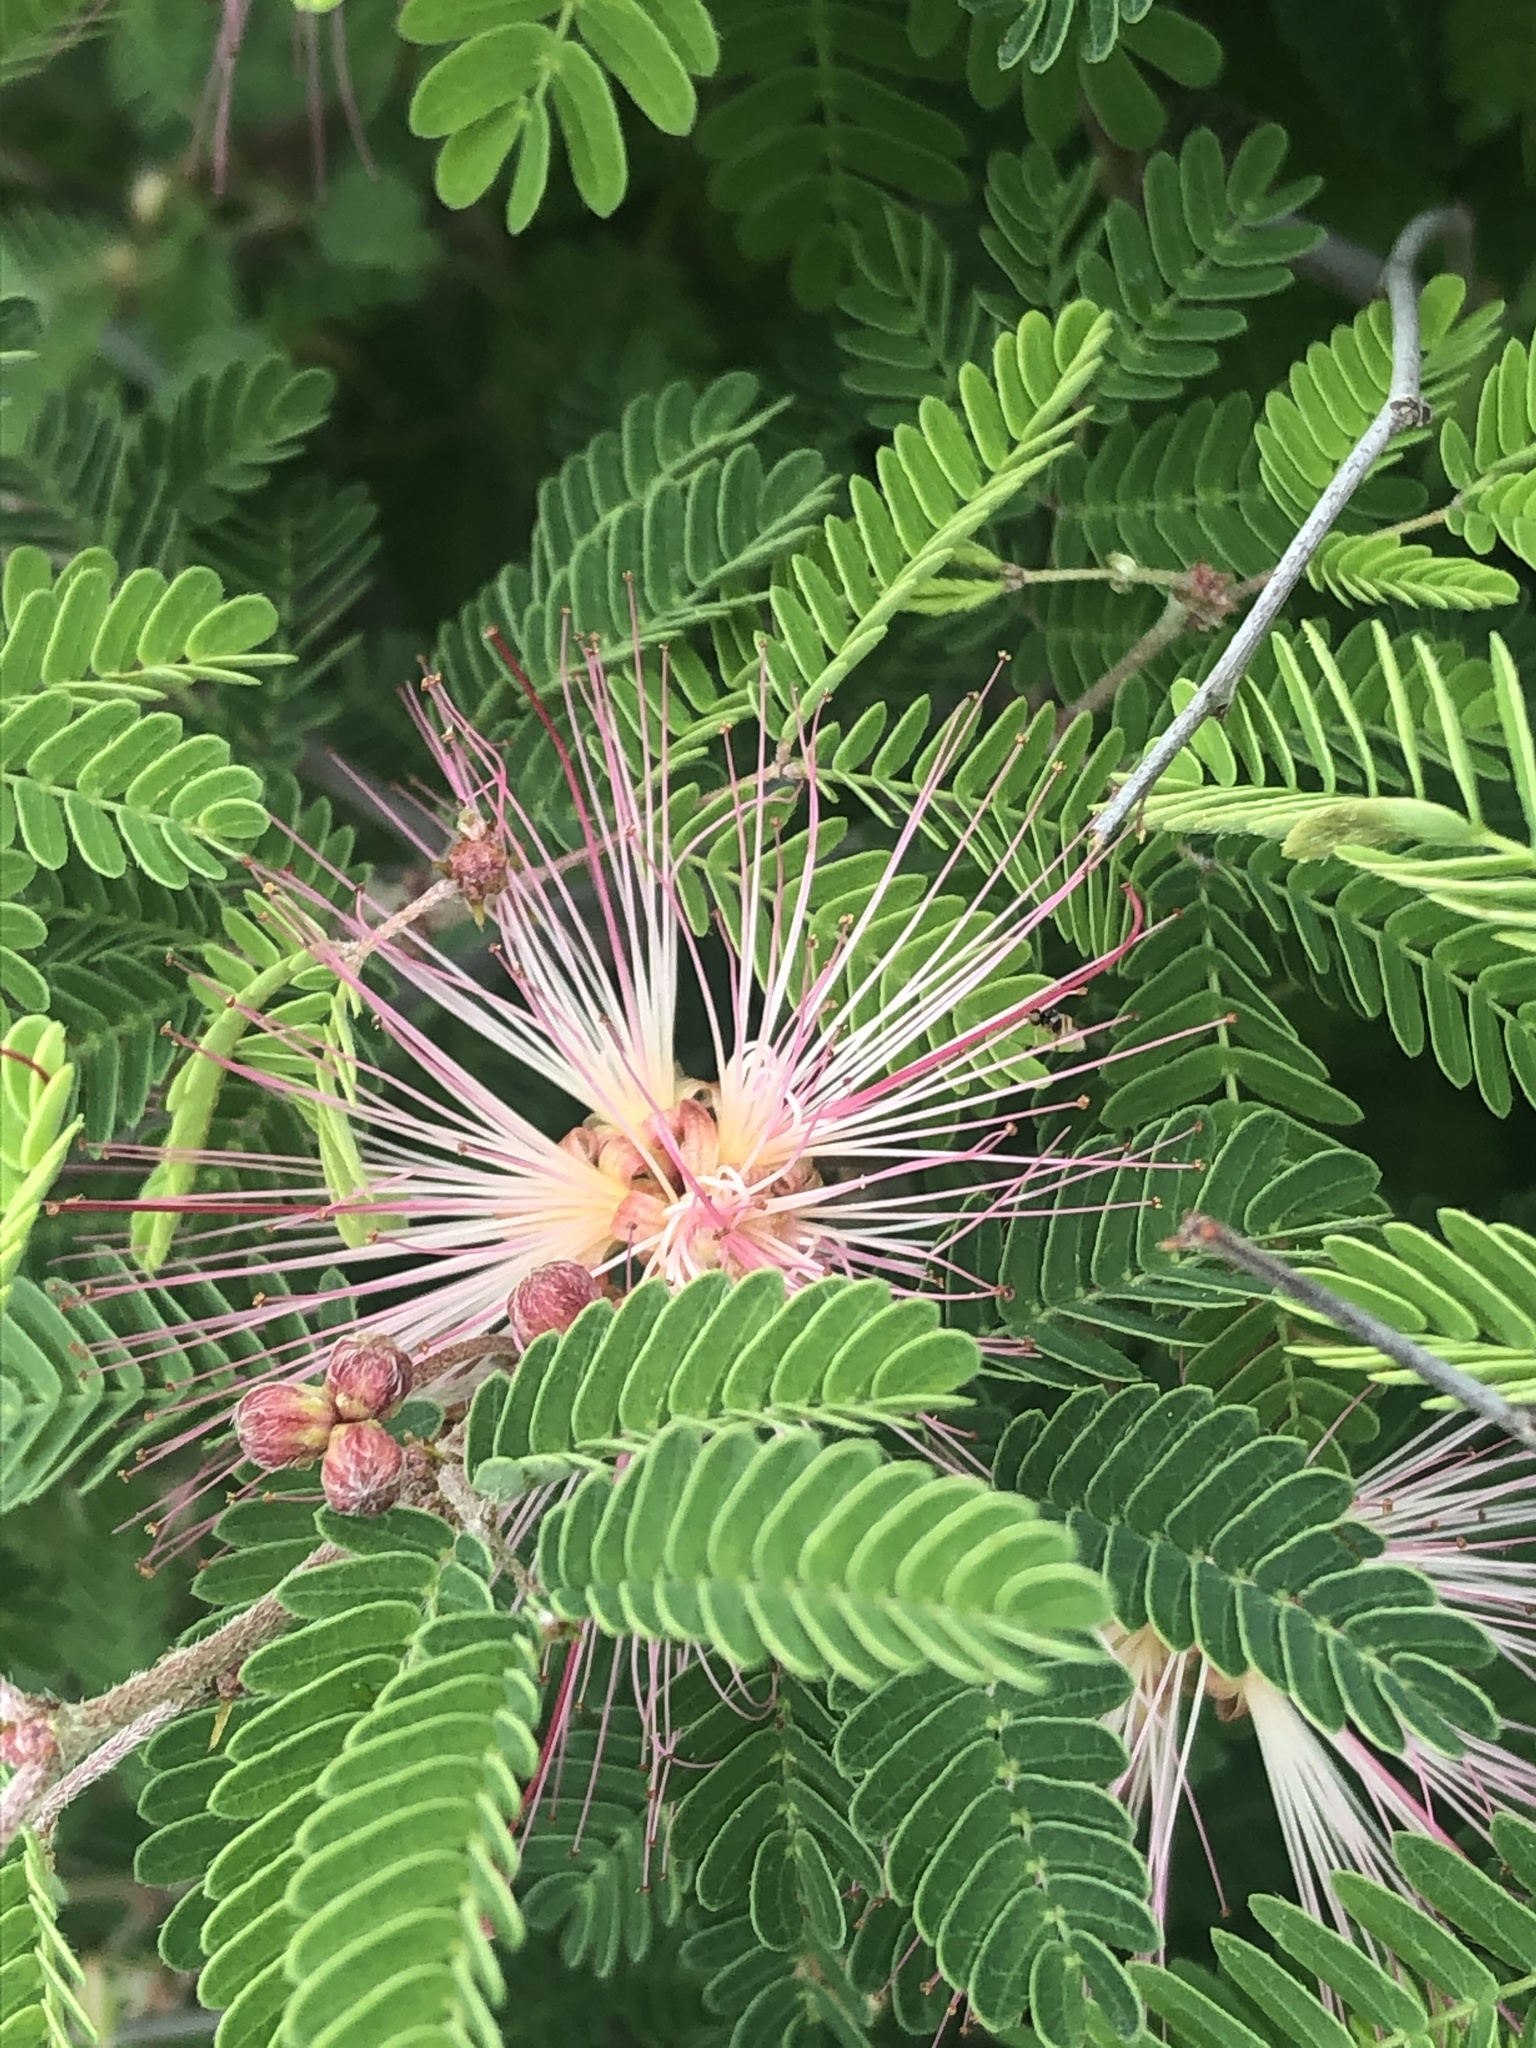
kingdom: Plantae
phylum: Tracheophyta
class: Magnoliopsida
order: Fabales
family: Fabaceae
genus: Calliandra
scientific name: Calliandra eriophylla
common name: Fairy-duster
